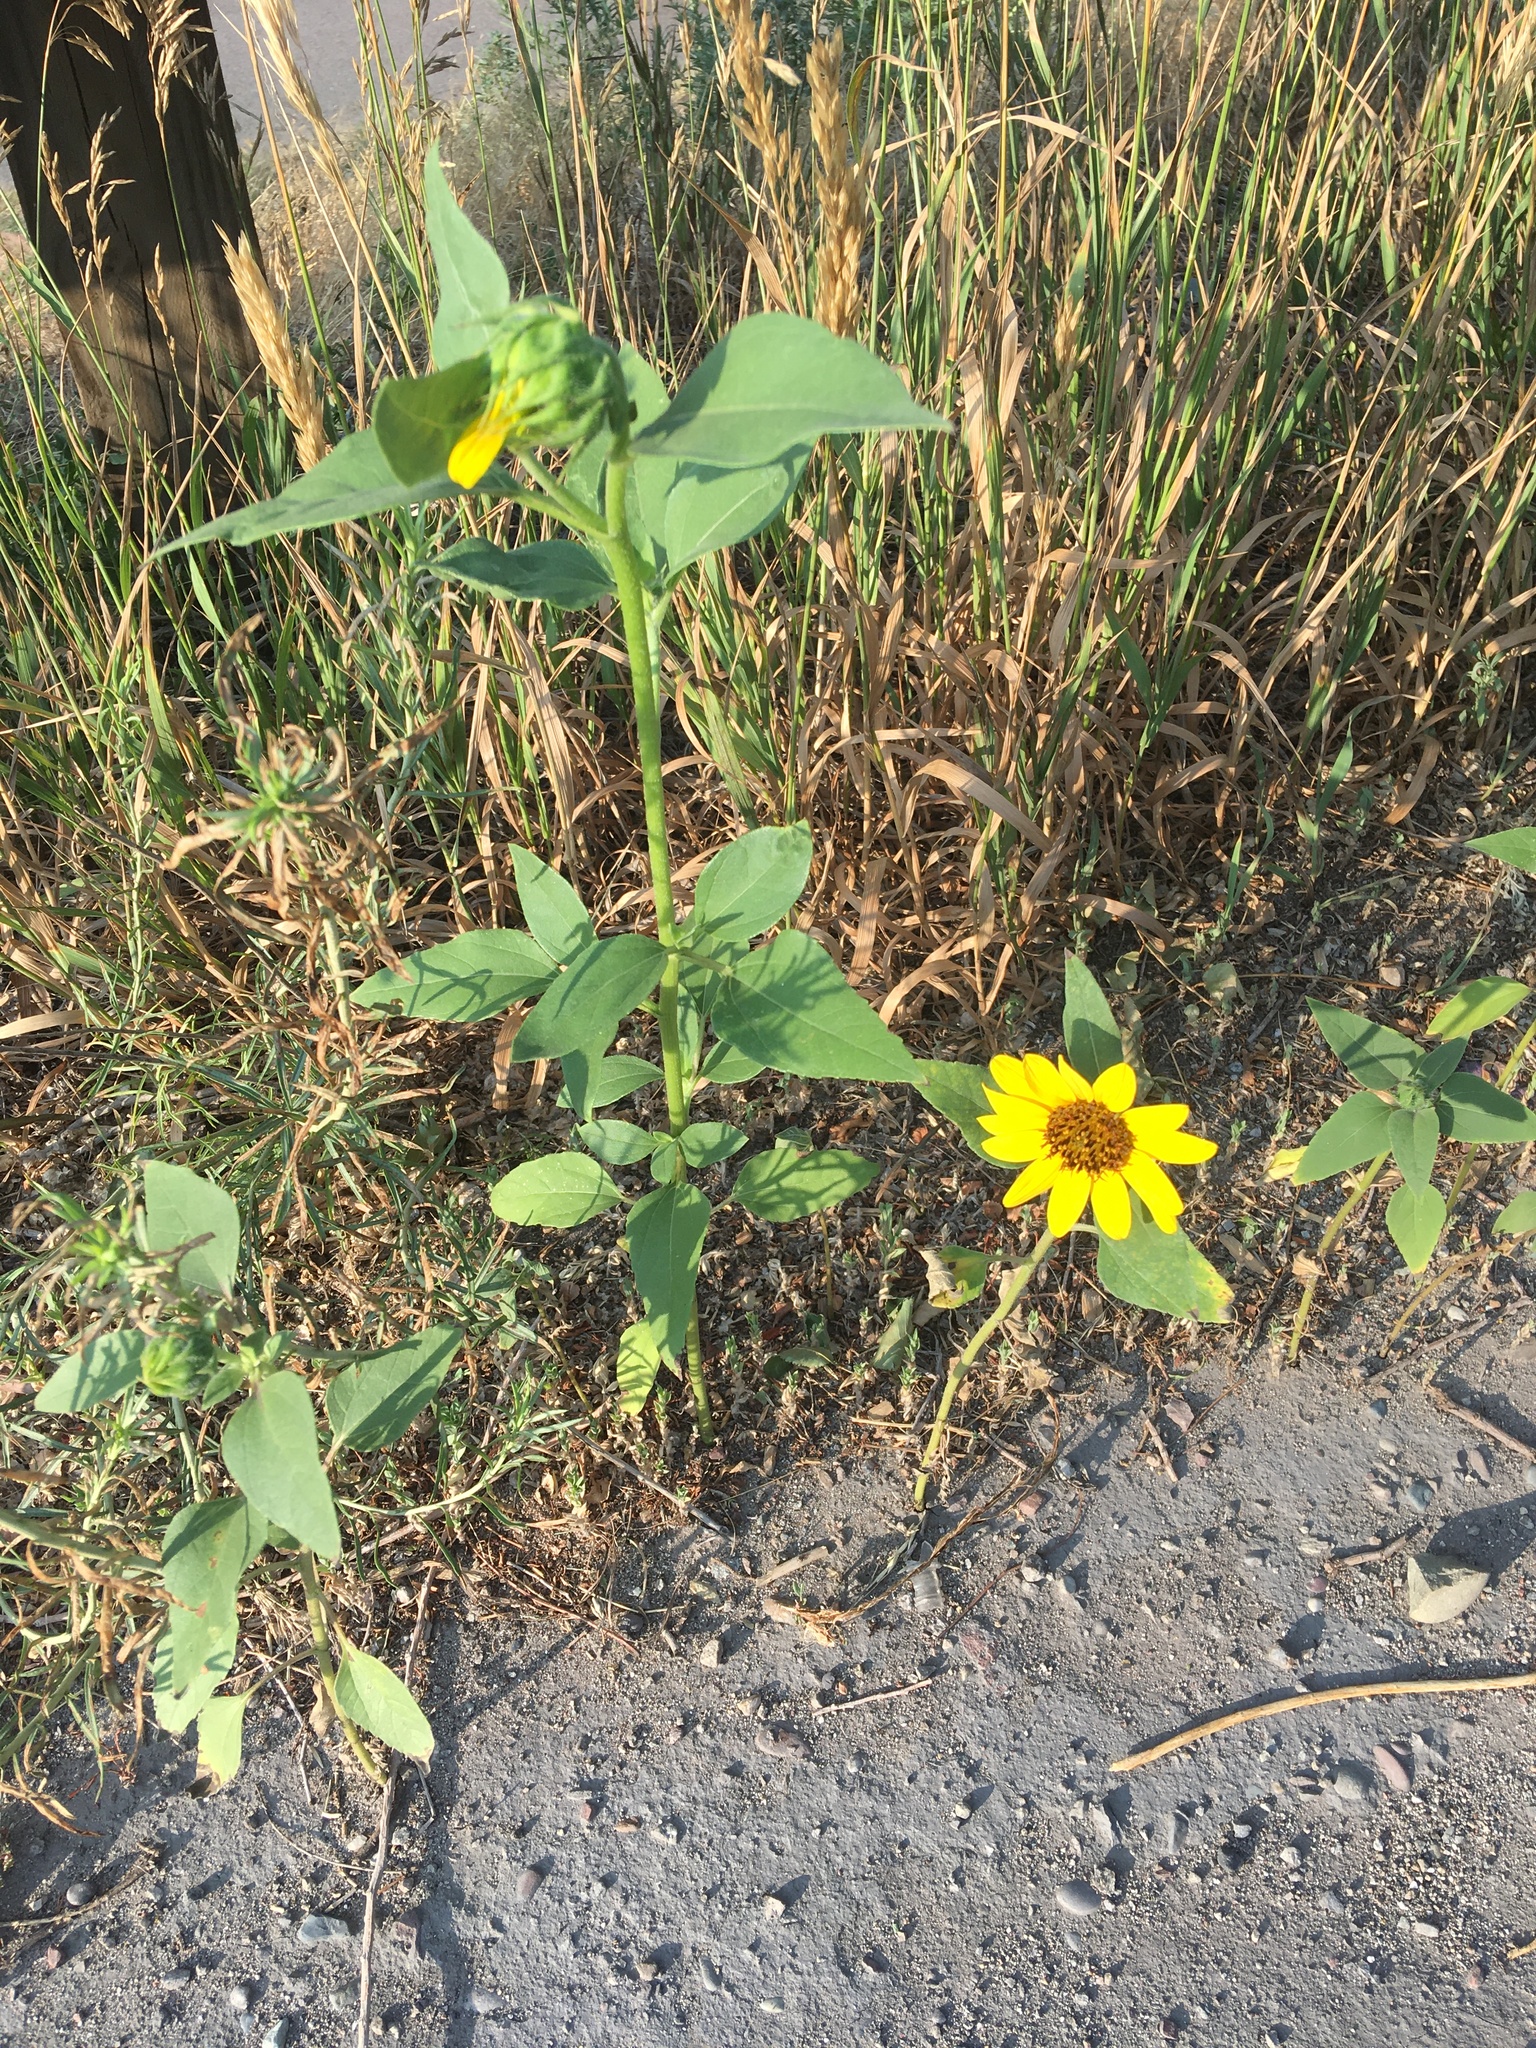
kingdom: Plantae
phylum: Tracheophyta
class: Magnoliopsida
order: Asterales
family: Asteraceae
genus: Helianthus
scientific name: Helianthus annuus
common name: Sunflower
